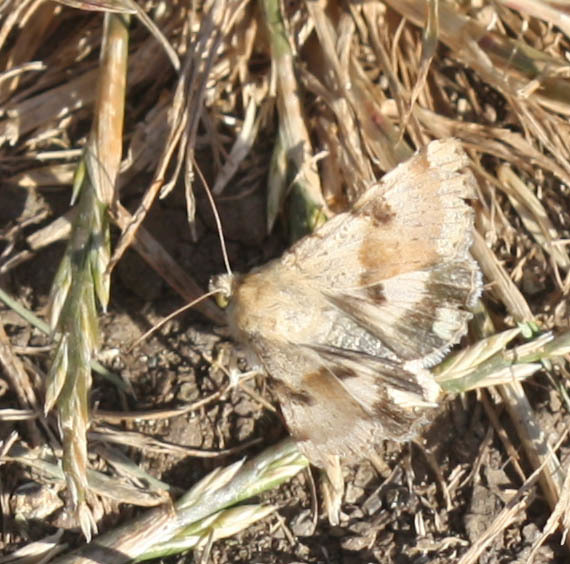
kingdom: Animalia
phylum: Arthropoda
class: Insecta
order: Lepidoptera
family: Noctuidae
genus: Heliothis
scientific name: Heliothis phloxiphaga
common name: Darker spotted straw moth
